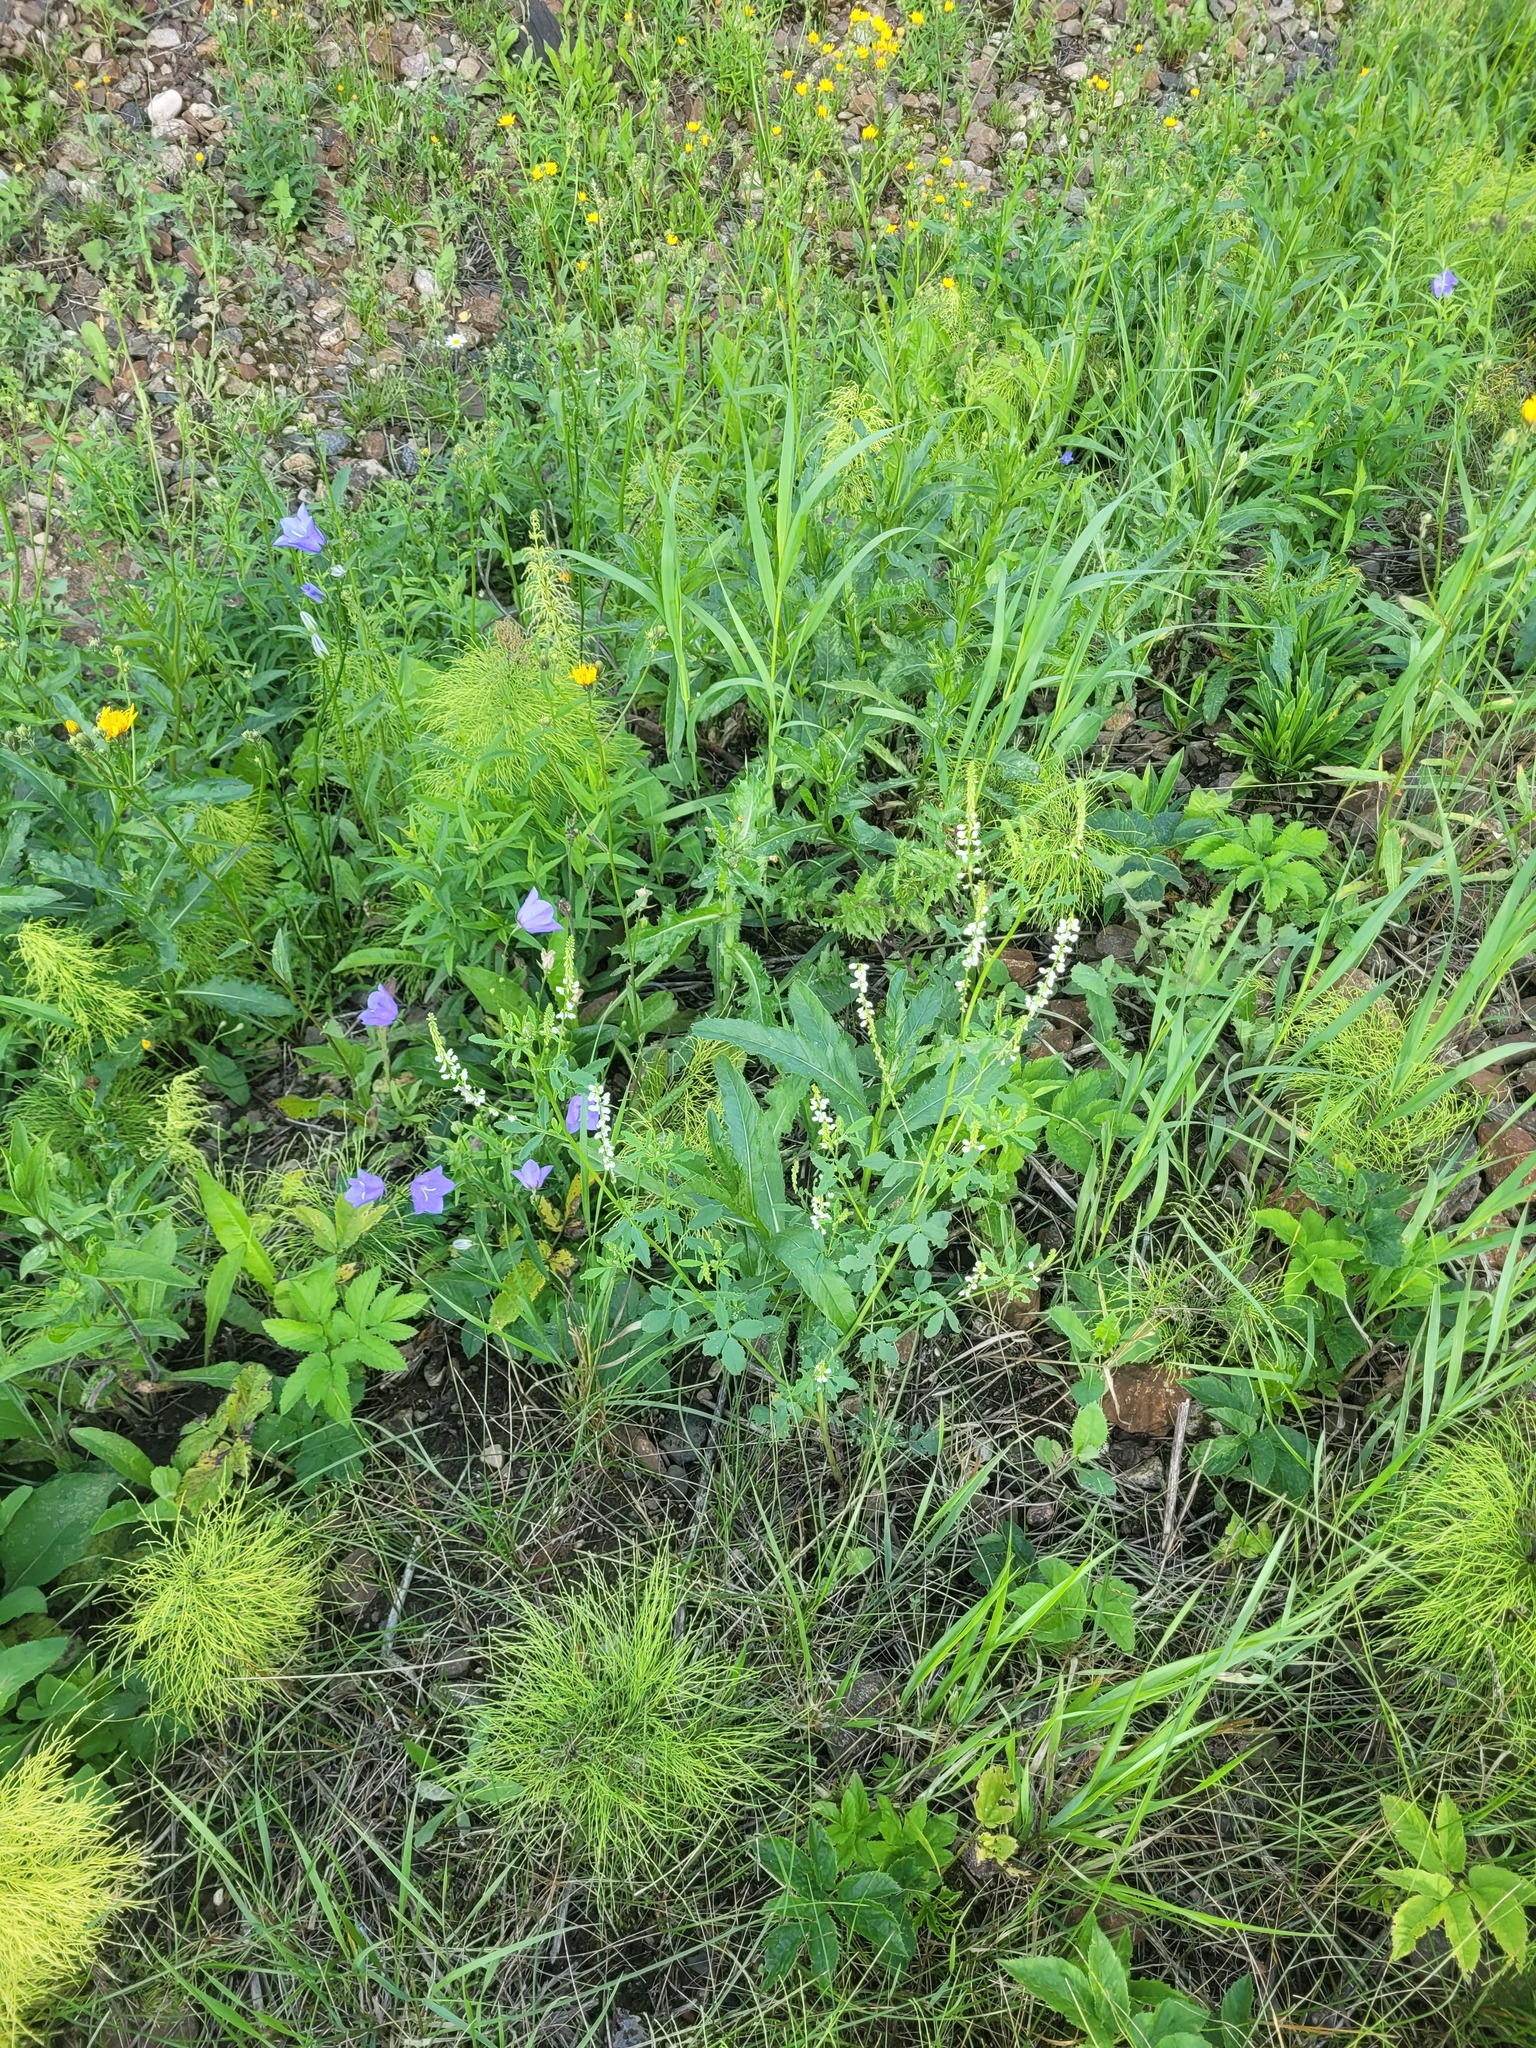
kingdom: Plantae
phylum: Tracheophyta
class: Magnoliopsida
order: Asterales
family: Campanulaceae
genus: Campanula
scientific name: Campanula persicifolia
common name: Peach-leaved bellflower
